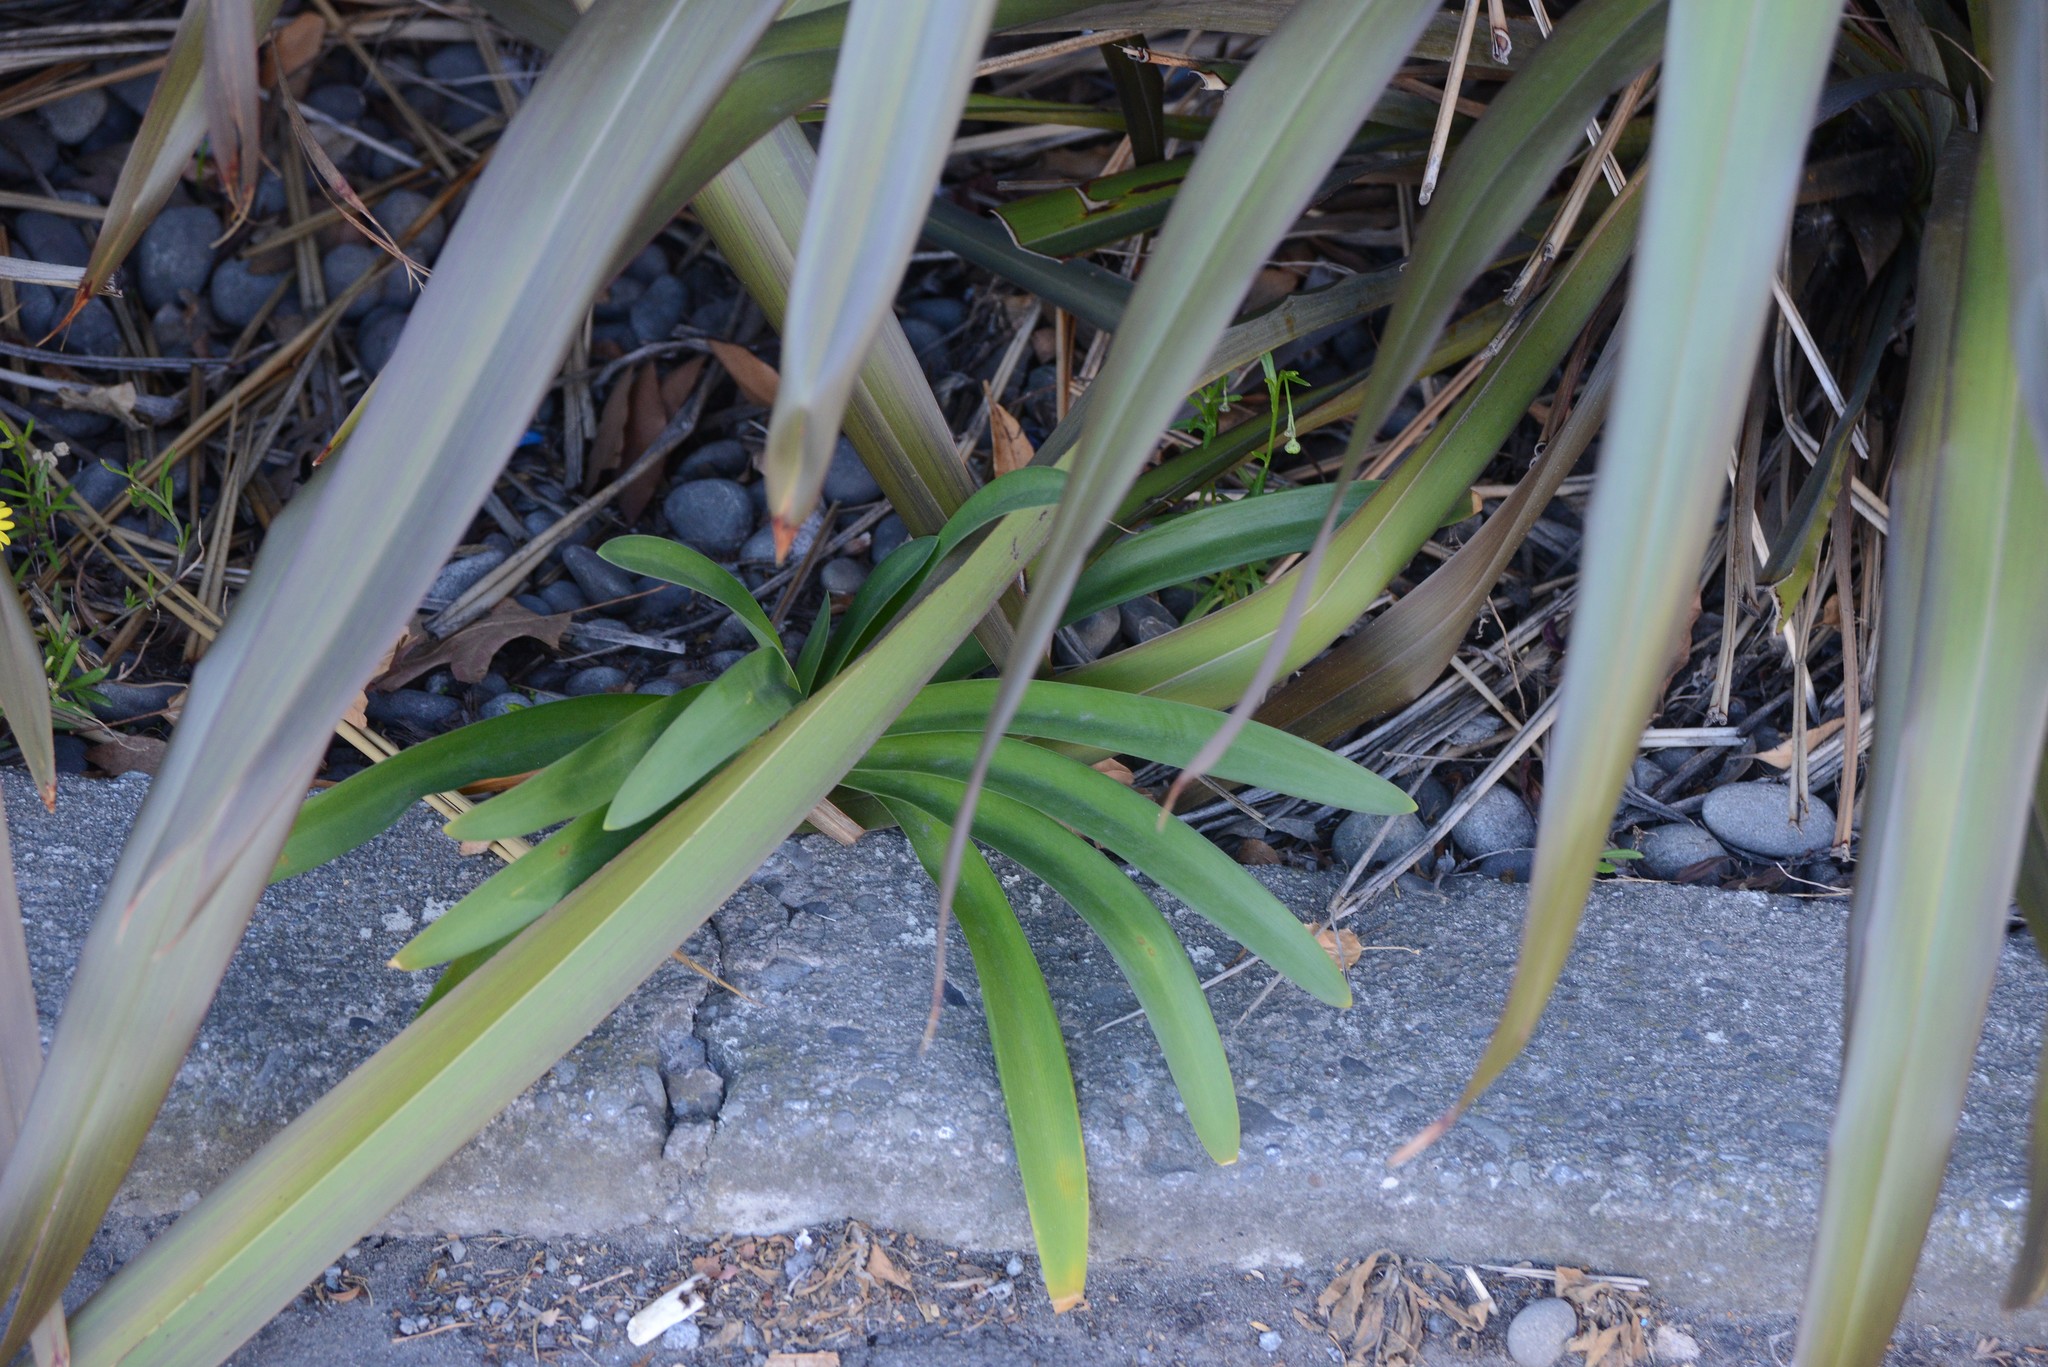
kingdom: Plantae
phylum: Tracheophyta
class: Liliopsida
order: Asparagales
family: Amaryllidaceae
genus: Agapanthus
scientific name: Agapanthus praecox
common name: African-lily
